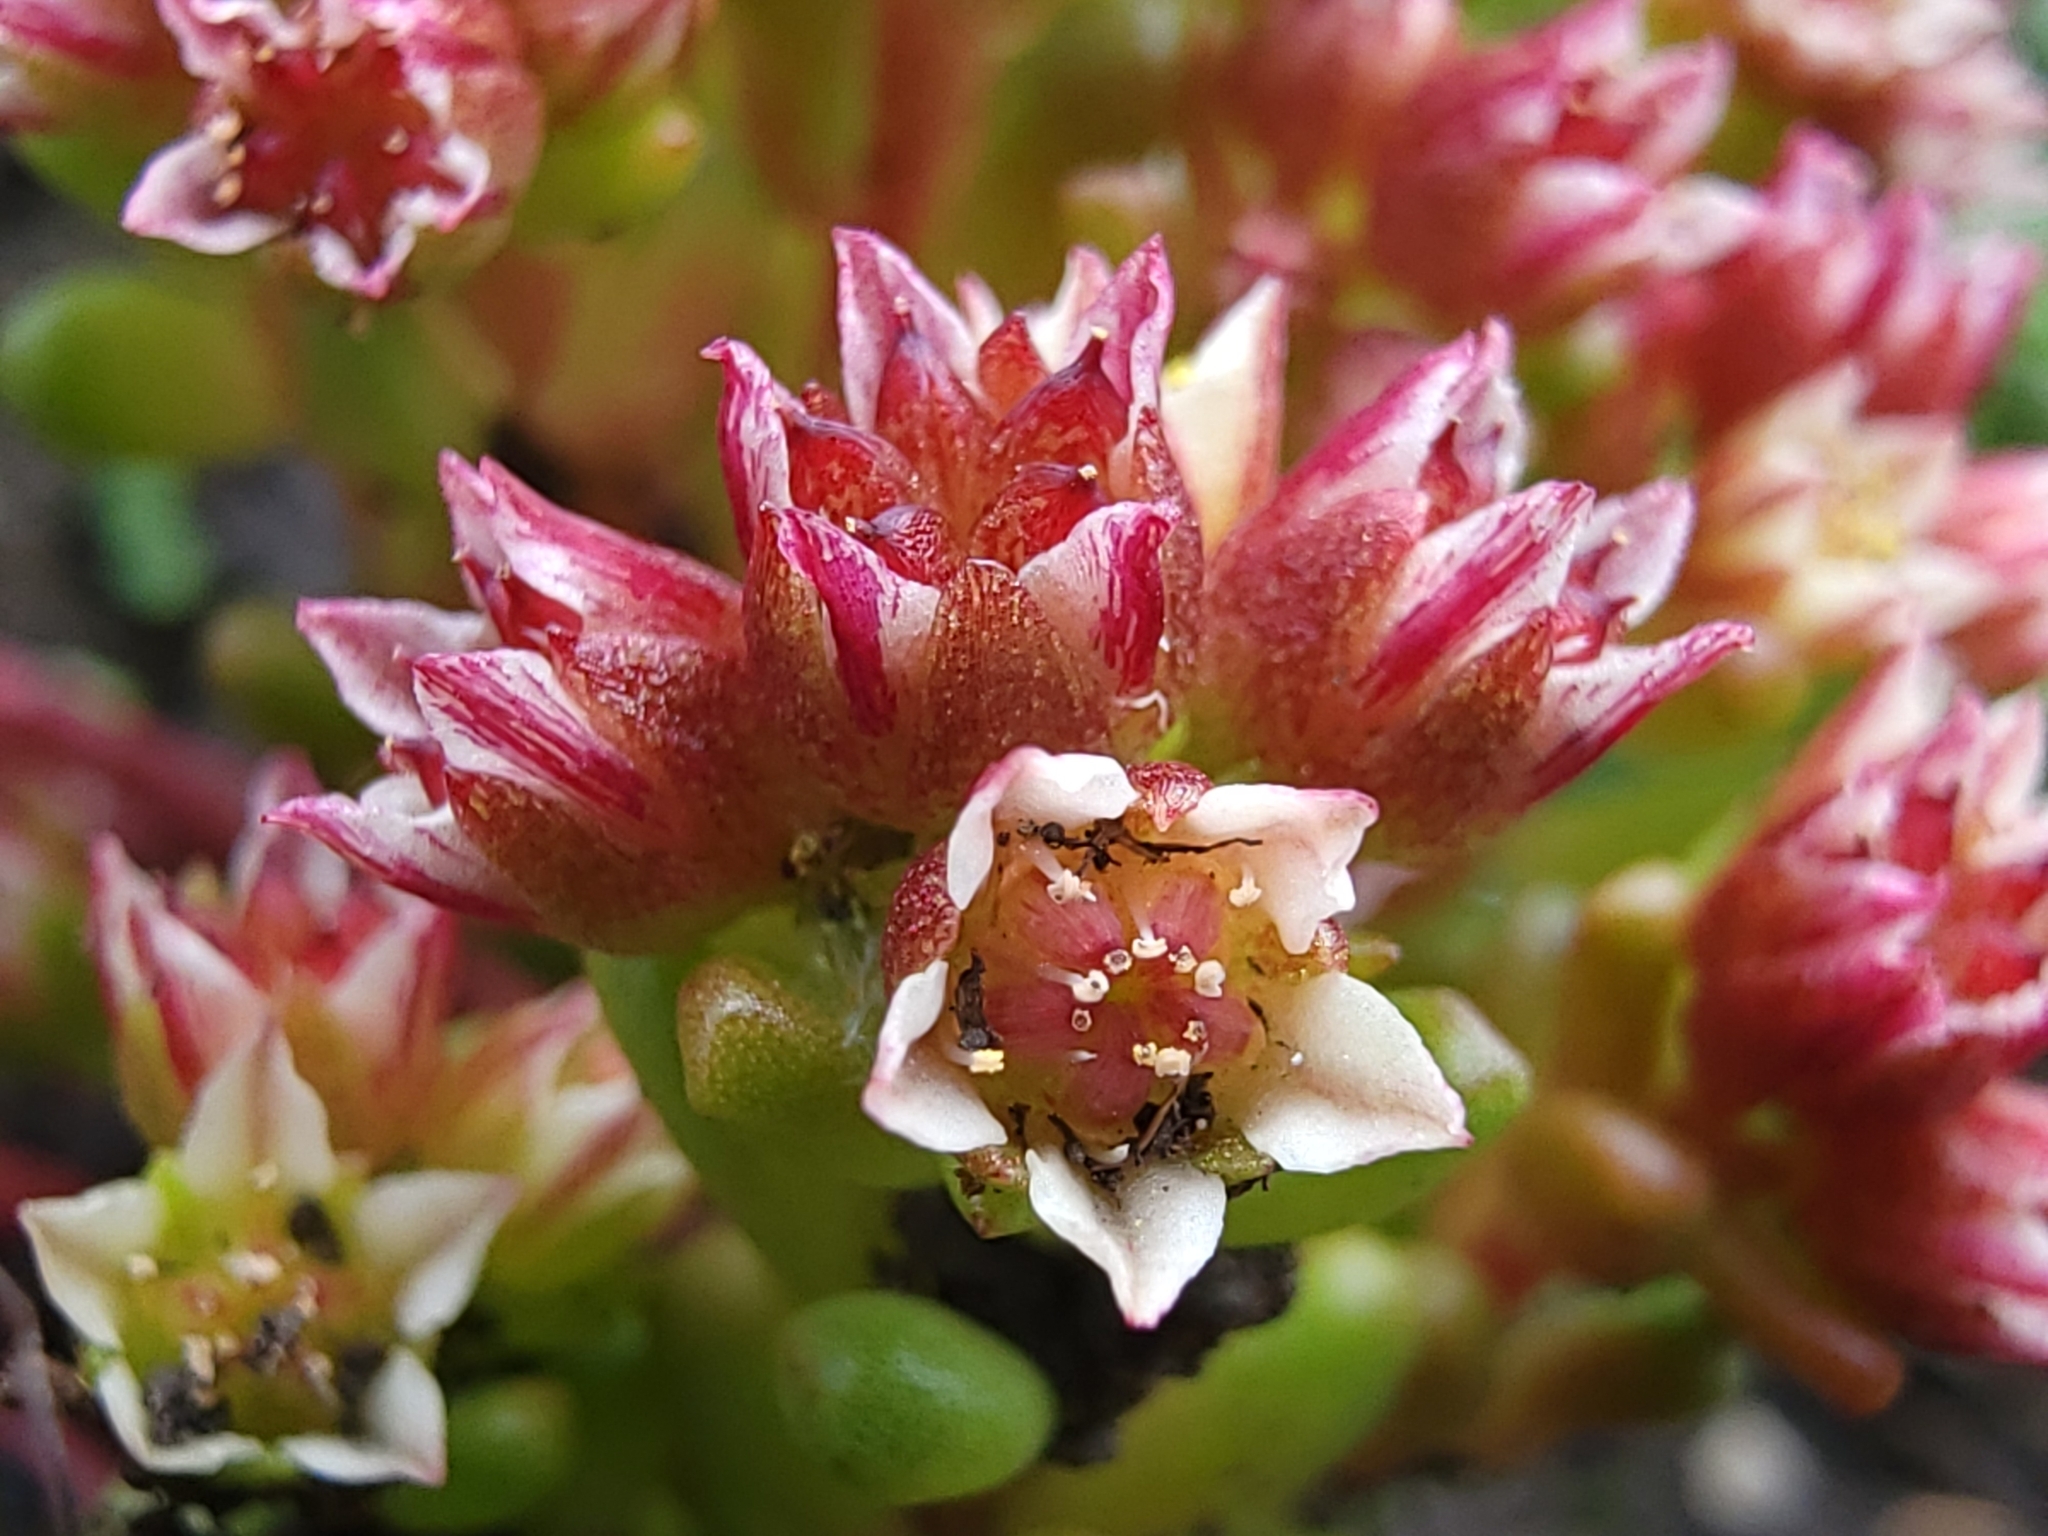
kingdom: Plantae
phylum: Tracheophyta
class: Magnoliopsida
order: Saxifragales
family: Crassulaceae
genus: Sedum
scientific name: Sedum atratum
